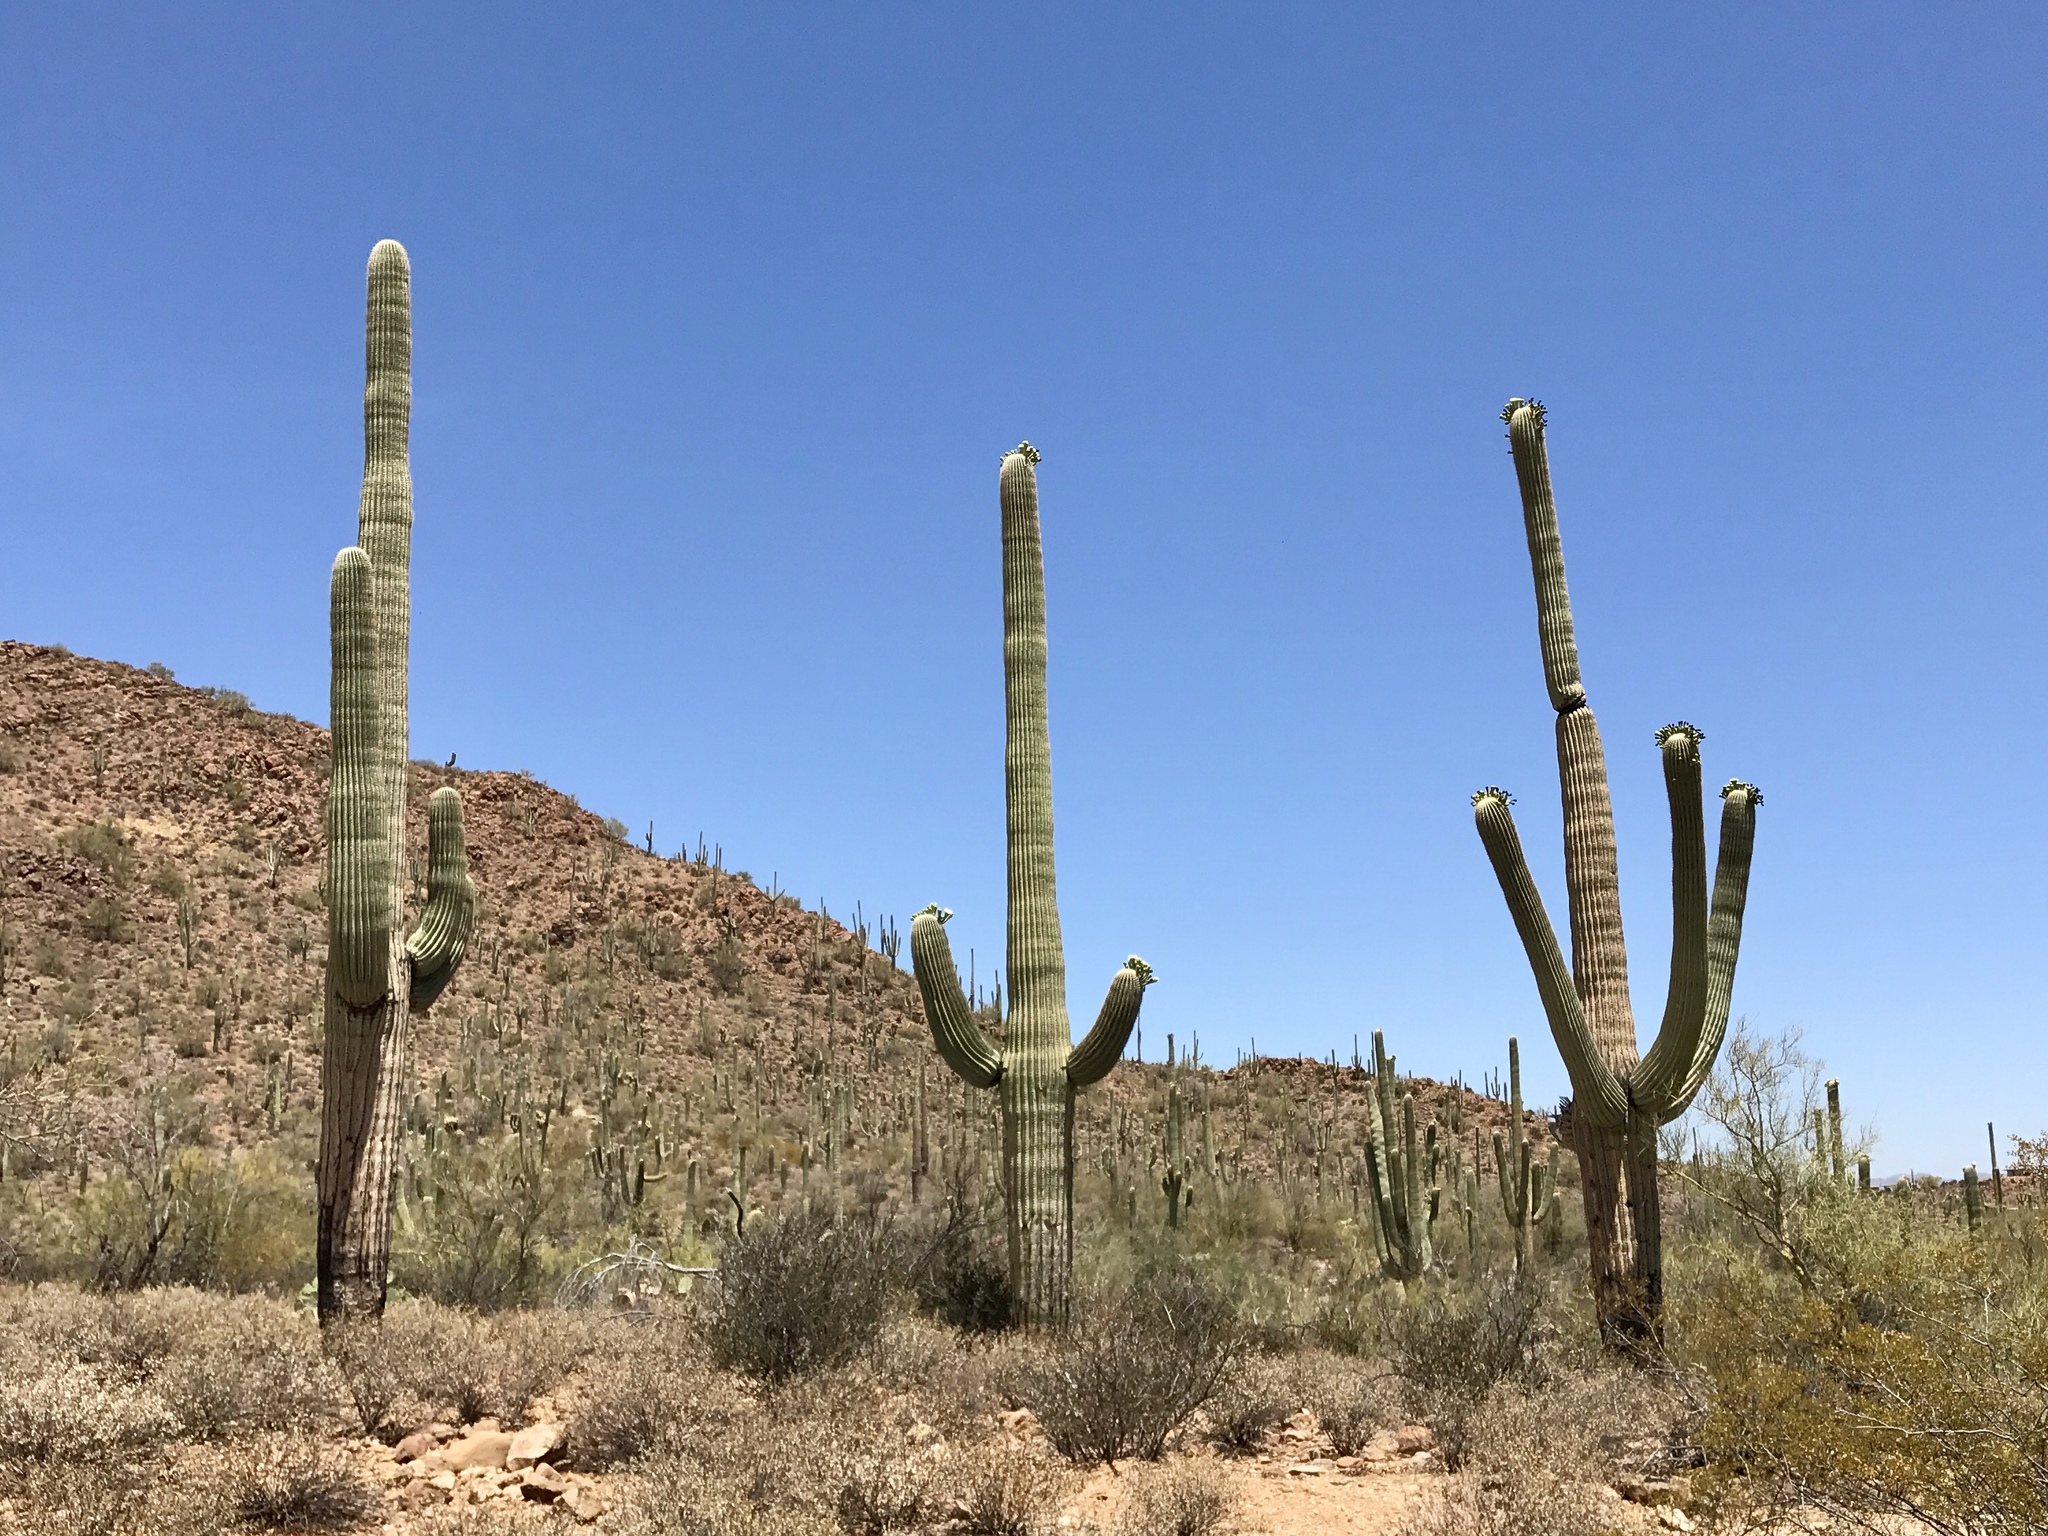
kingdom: Plantae
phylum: Tracheophyta
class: Magnoliopsida
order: Caryophyllales
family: Cactaceae
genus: Carnegiea
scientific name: Carnegiea gigantea
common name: Saguaro
